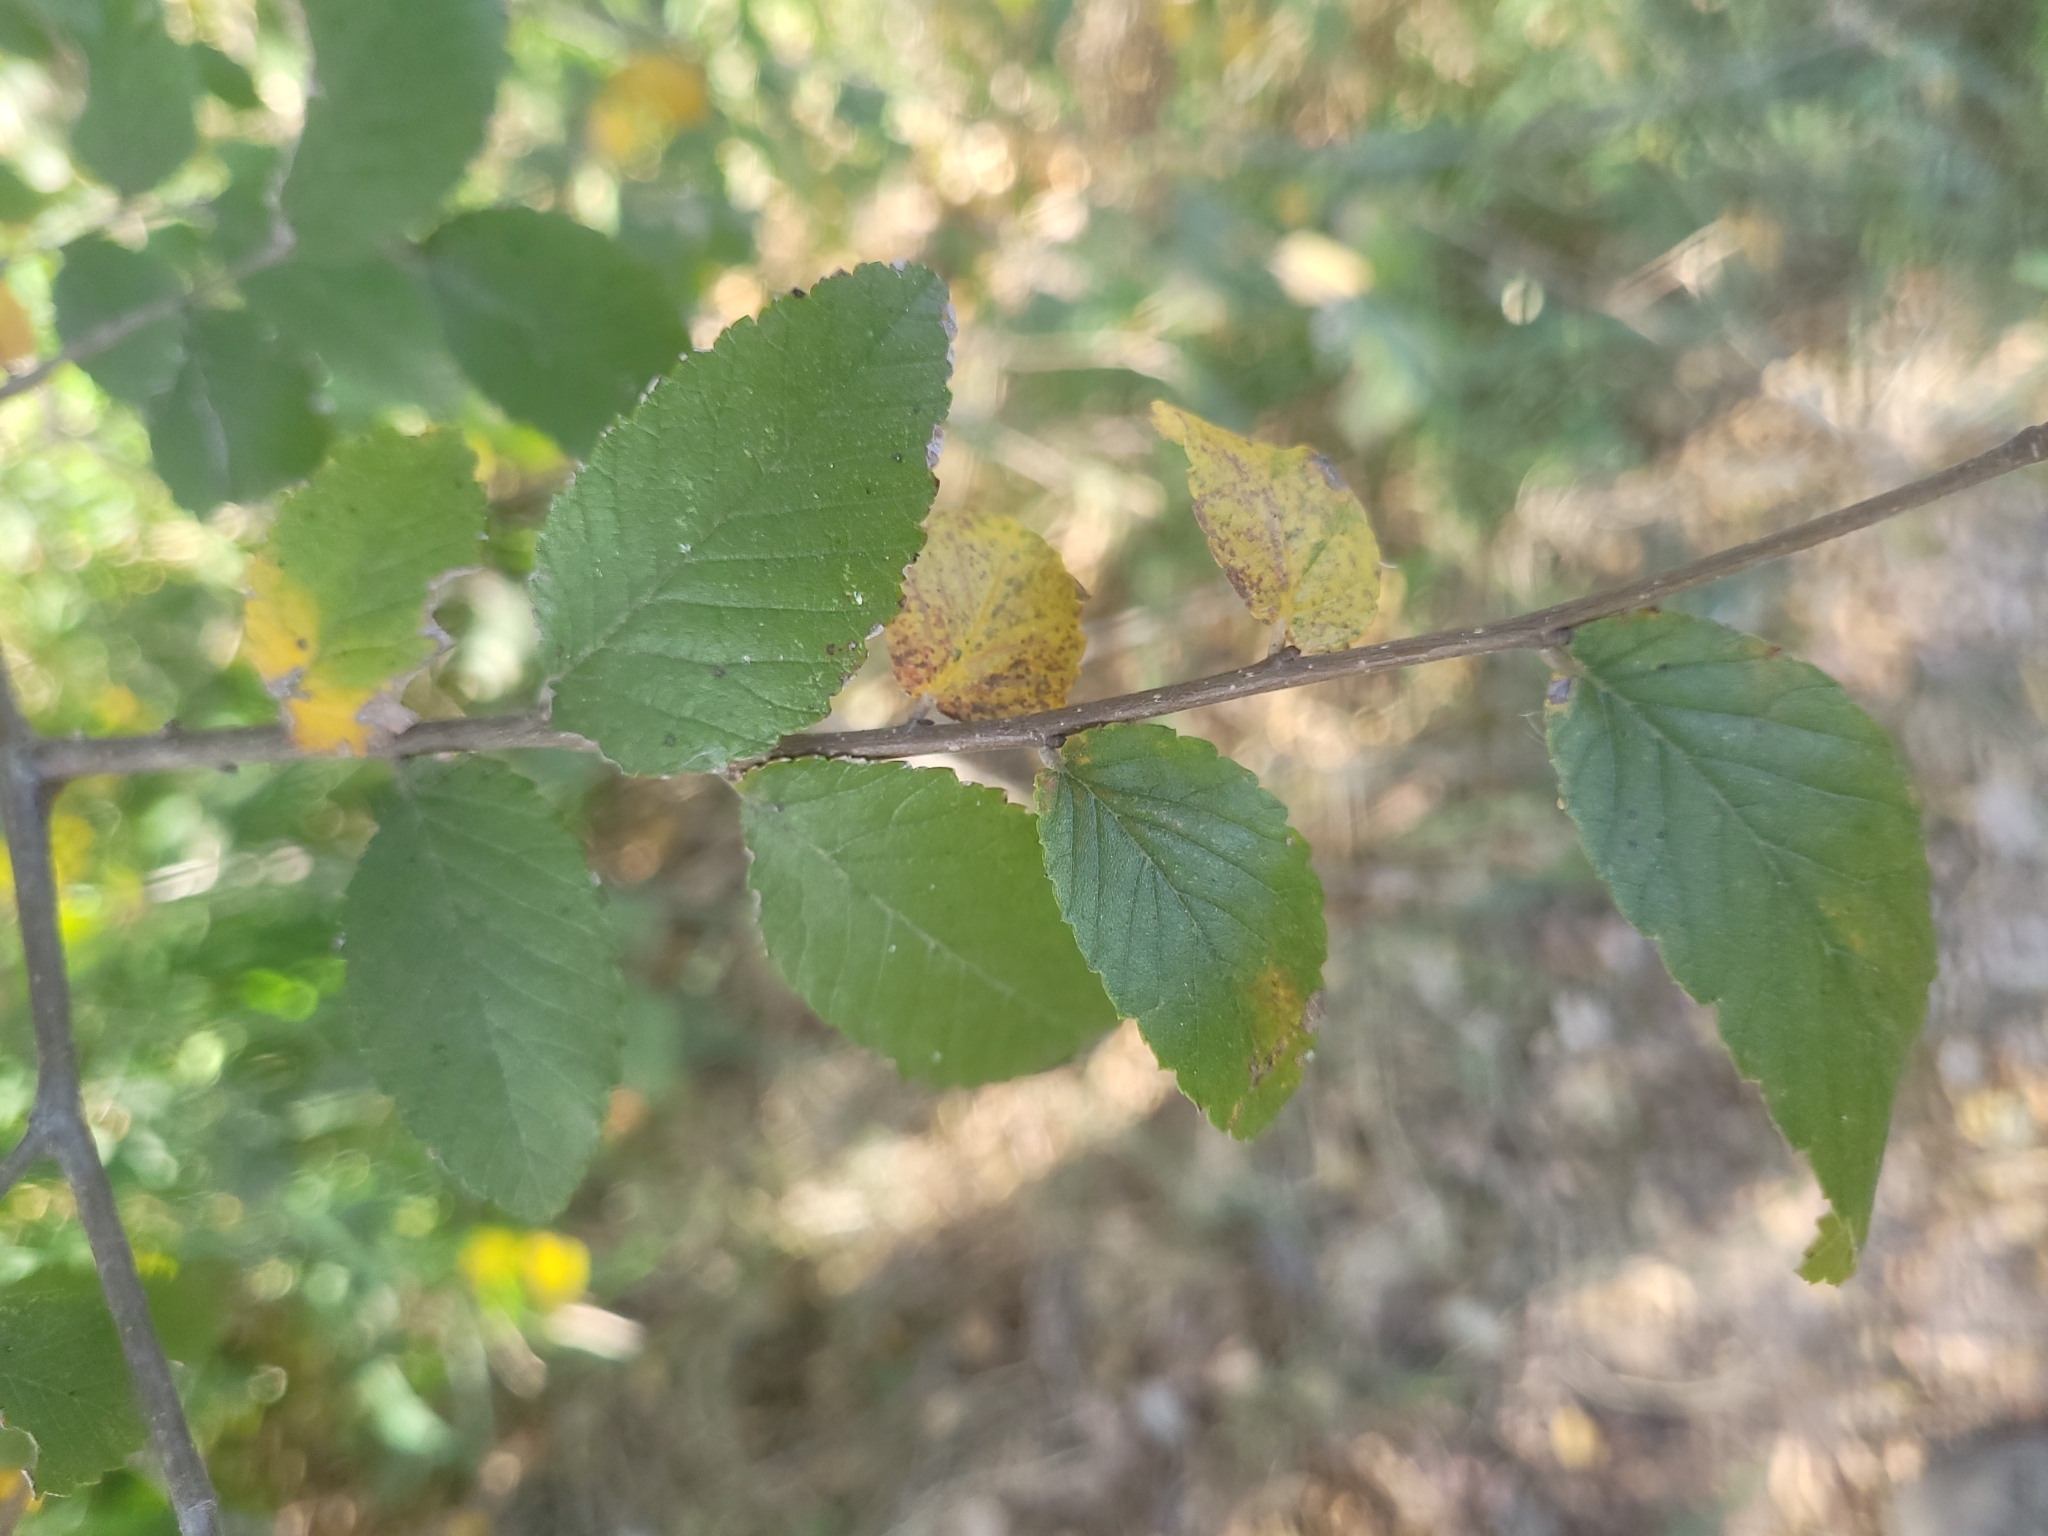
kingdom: Plantae
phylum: Tracheophyta
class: Magnoliopsida
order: Rosales
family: Ulmaceae
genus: Ulmus
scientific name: Ulmus crassifolia
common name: Basket elm
